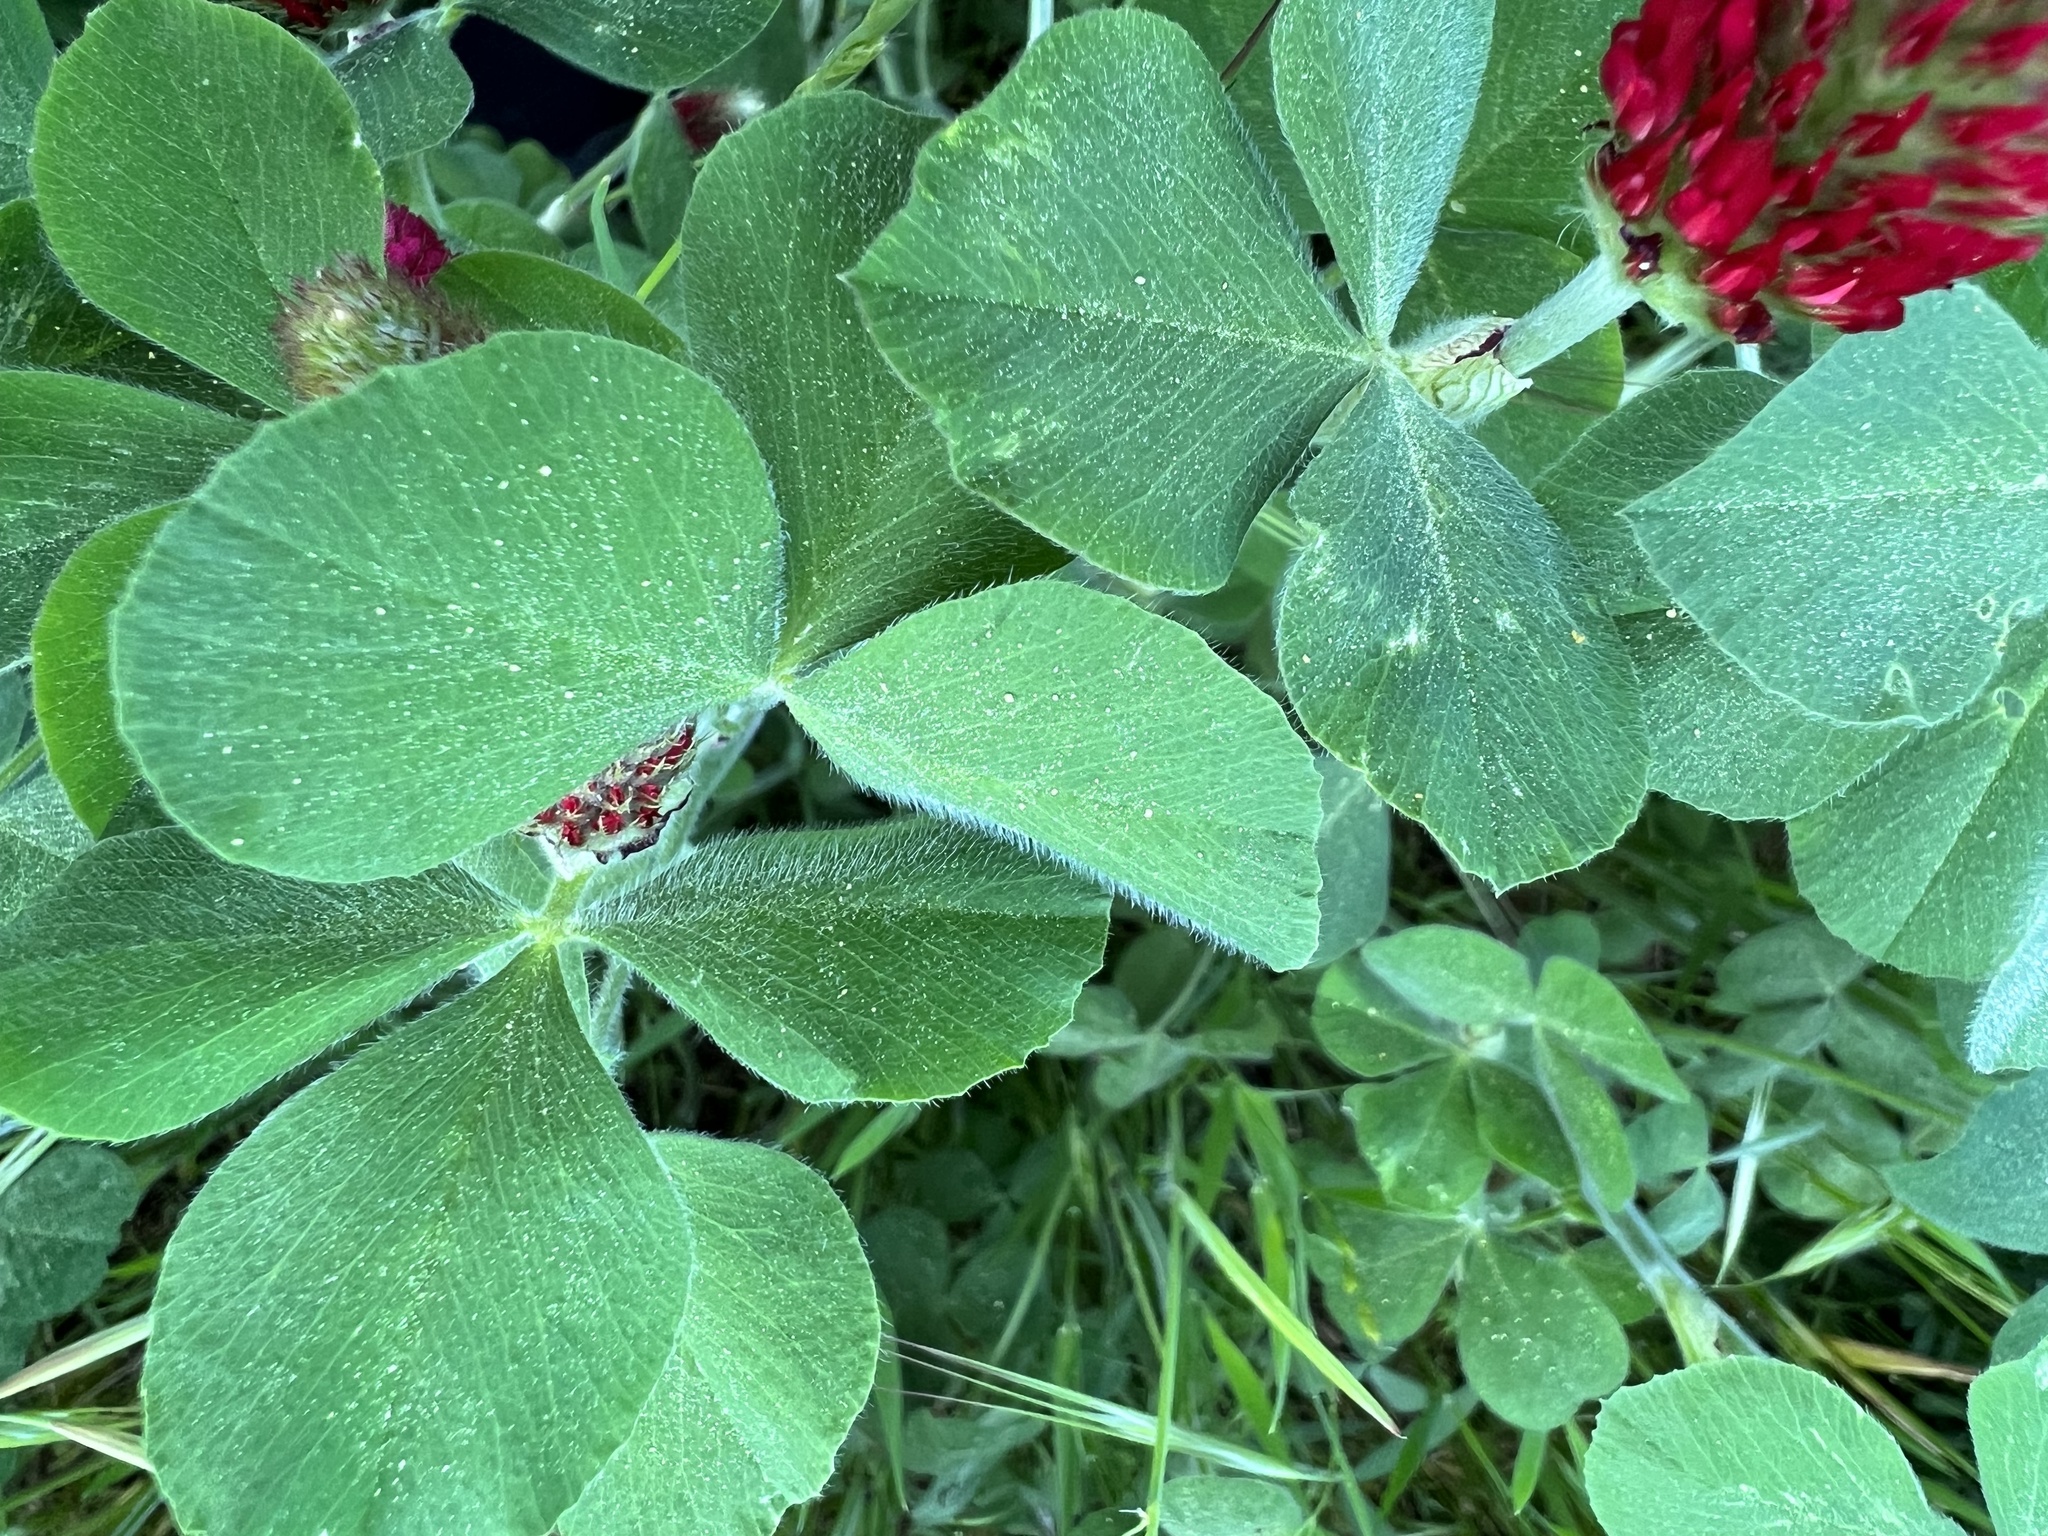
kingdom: Plantae
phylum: Tracheophyta
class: Magnoliopsida
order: Fabales
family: Fabaceae
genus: Trifolium
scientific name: Trifolium incarnatum
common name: Crimson clover
